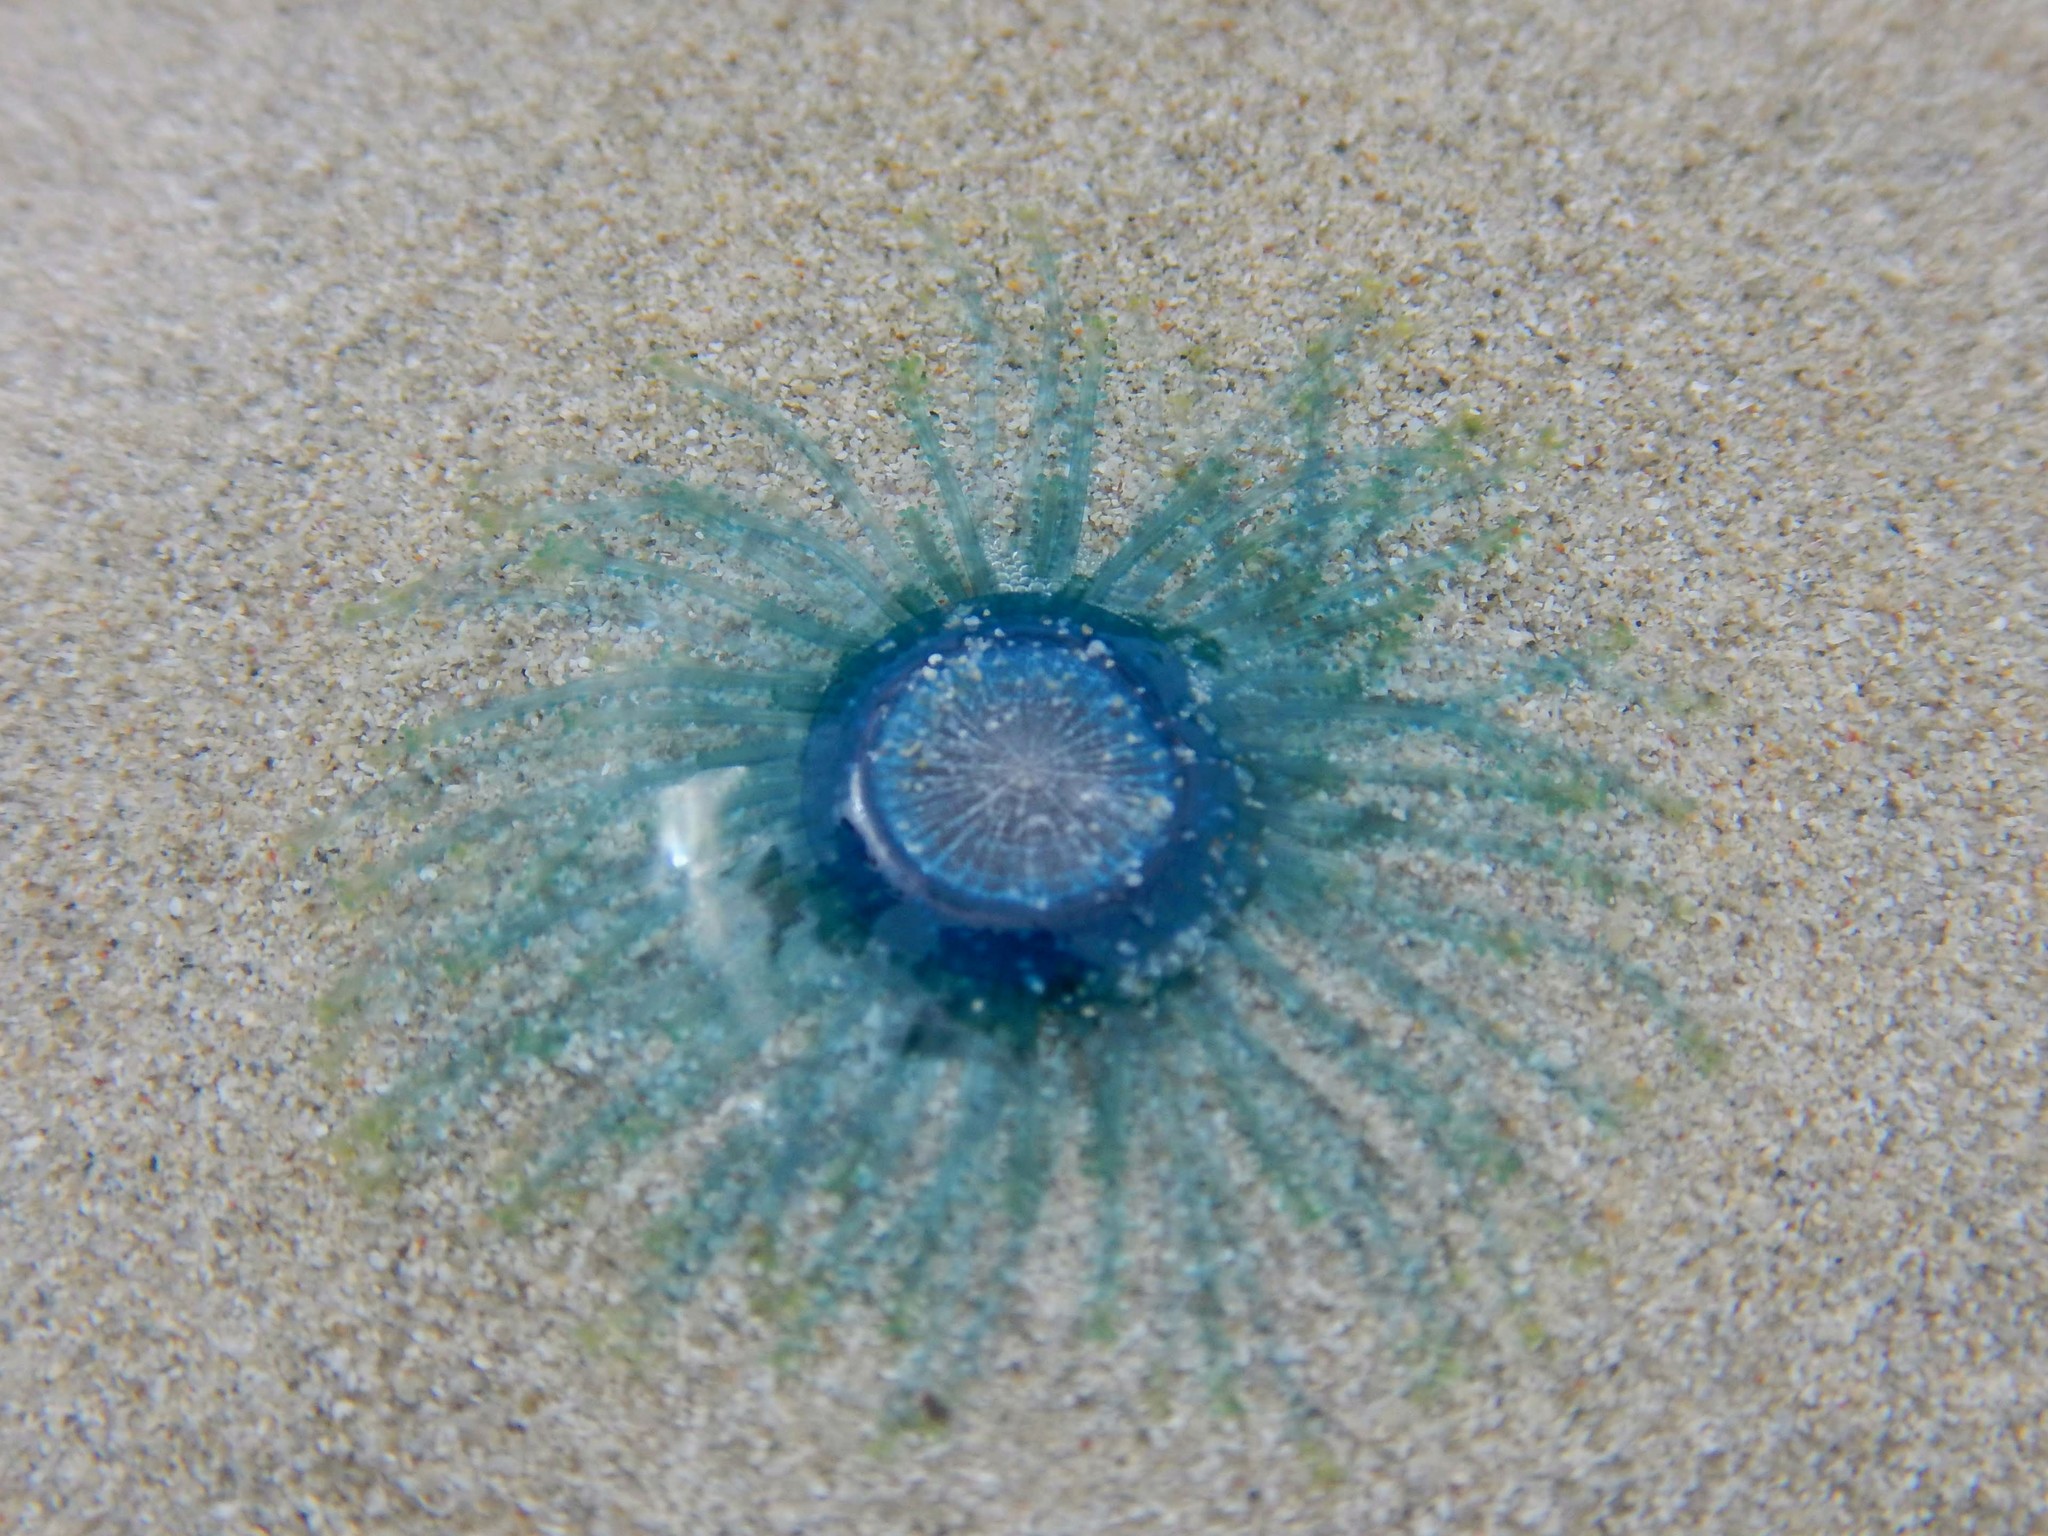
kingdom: Animalia
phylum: Cnidaria
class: Hydrozoa
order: Anthoathecata
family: Porpitidae
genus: Porpita
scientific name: Porpita porpita
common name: Blue button
